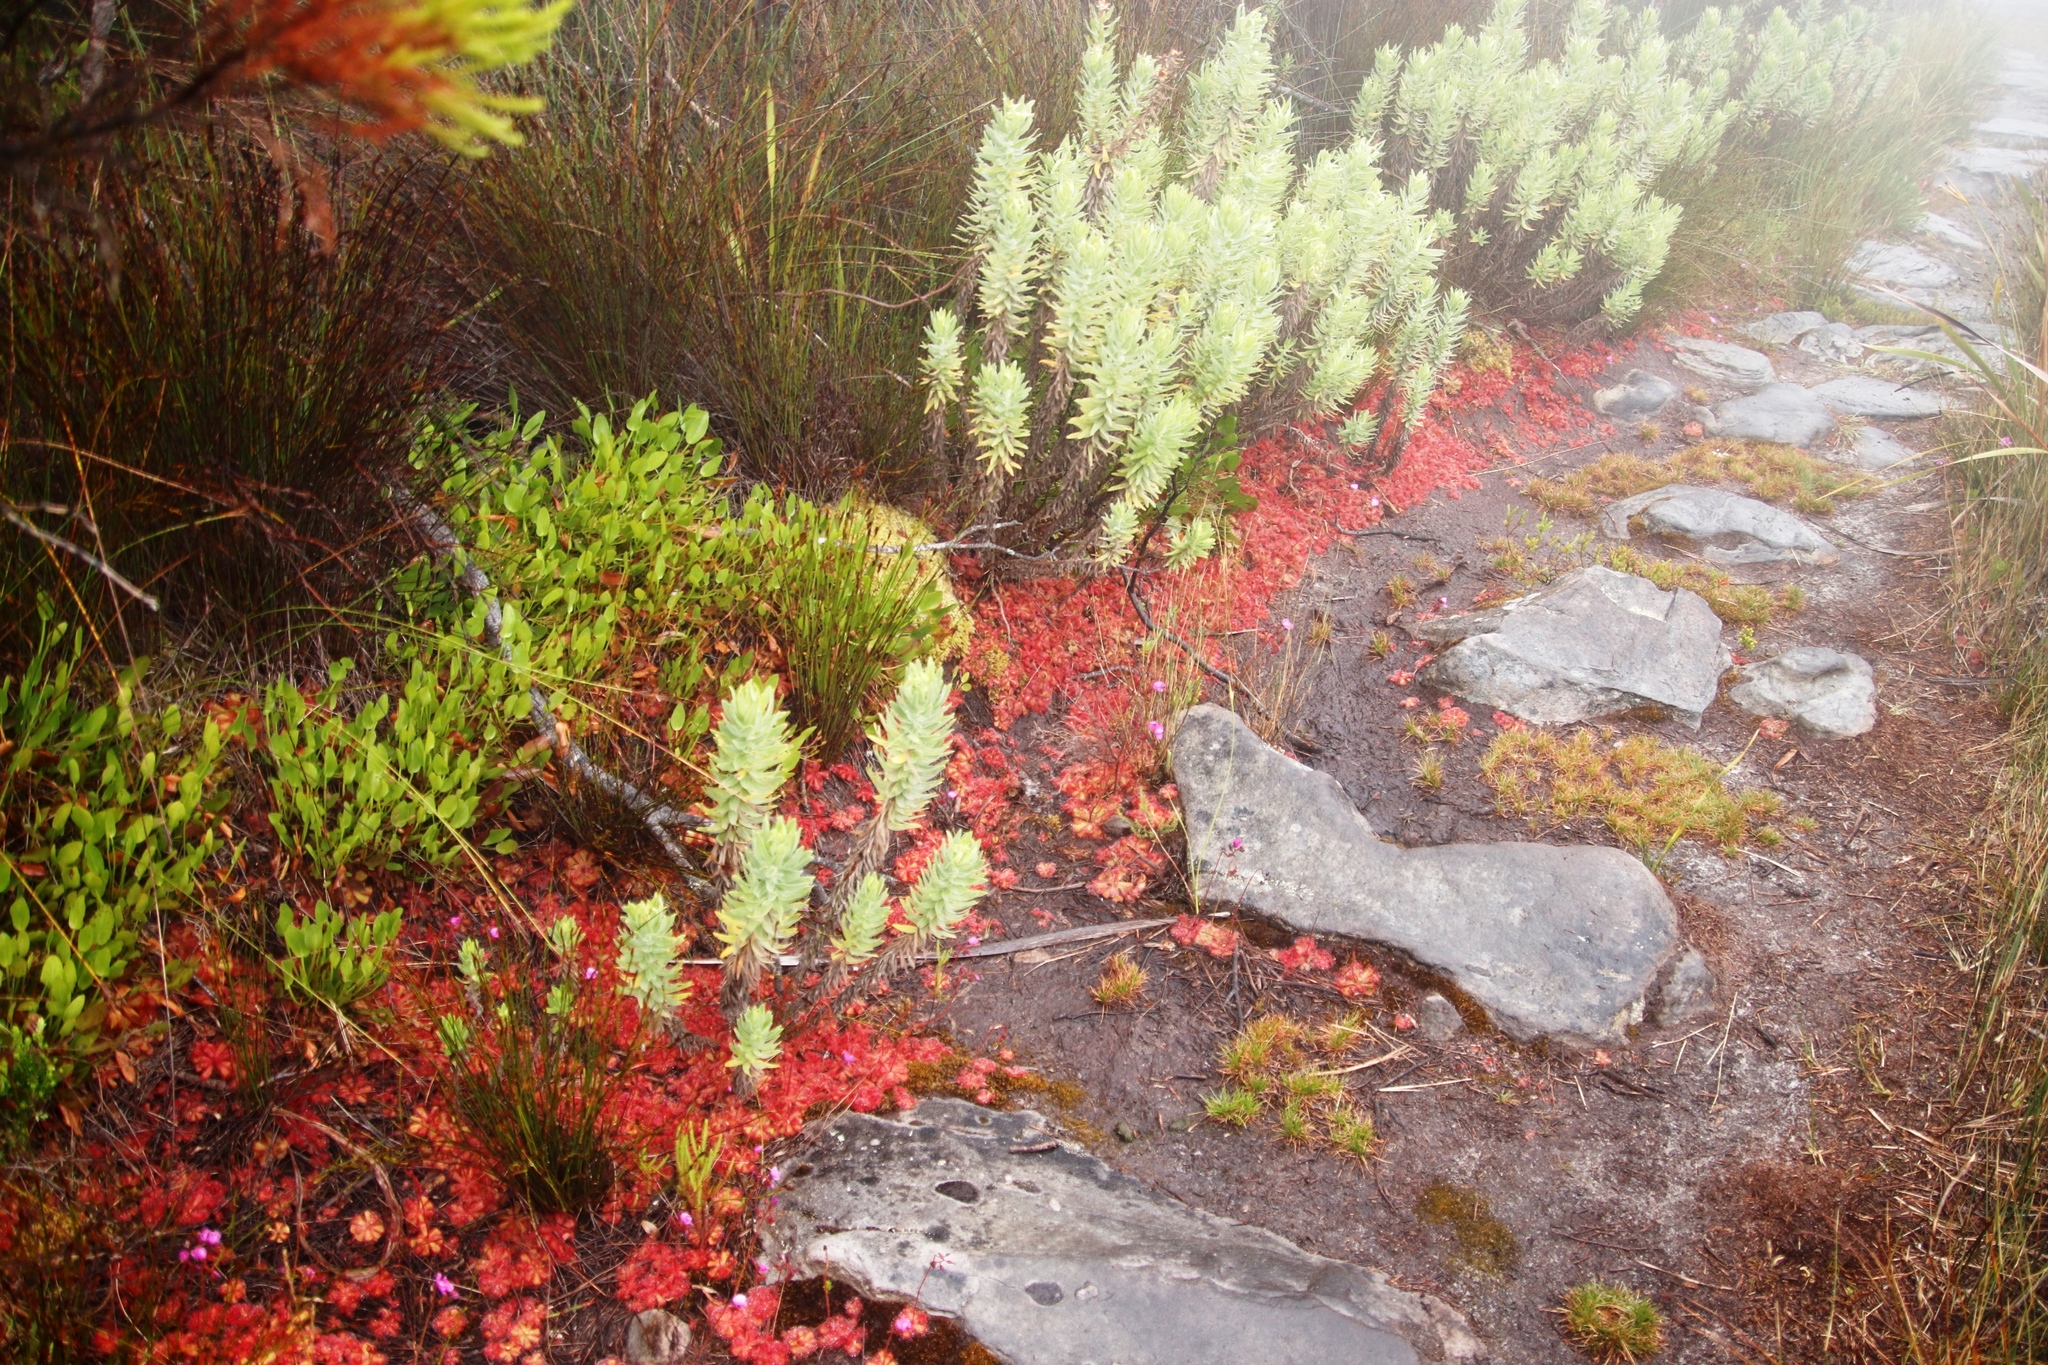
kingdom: Plantae
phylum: Tracheophyta
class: Magnoliopsida
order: Caryophyllales
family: Droseraceae
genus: Drosera
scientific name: Drosera cuneifolia
